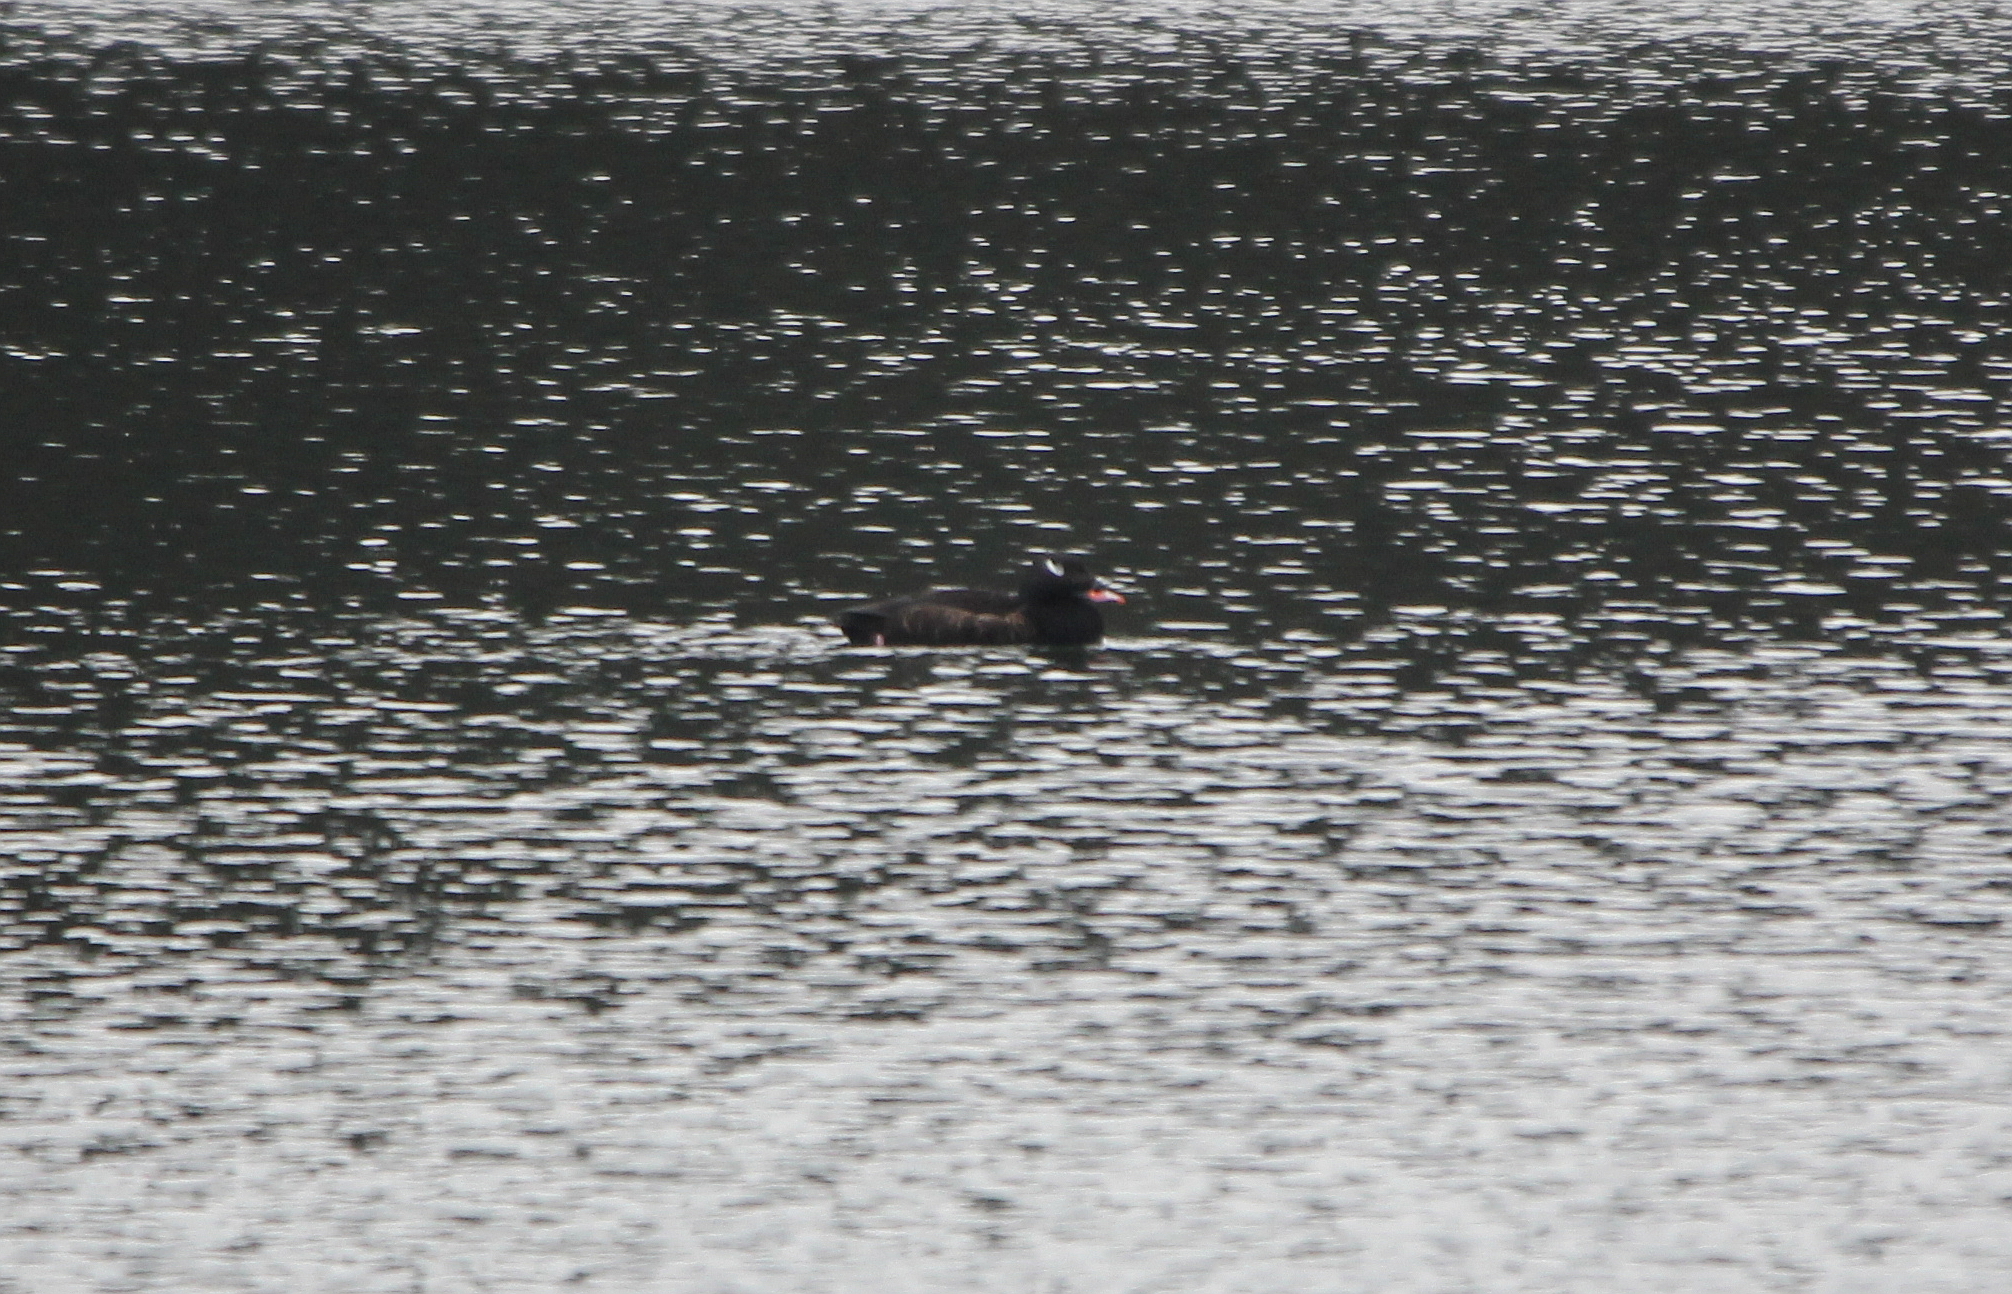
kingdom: Animalia
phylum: Chordata
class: Aves
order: Anseriformes
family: Anatidae
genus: Melanitta
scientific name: Melanitta deglandi
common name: White-winged scoter
